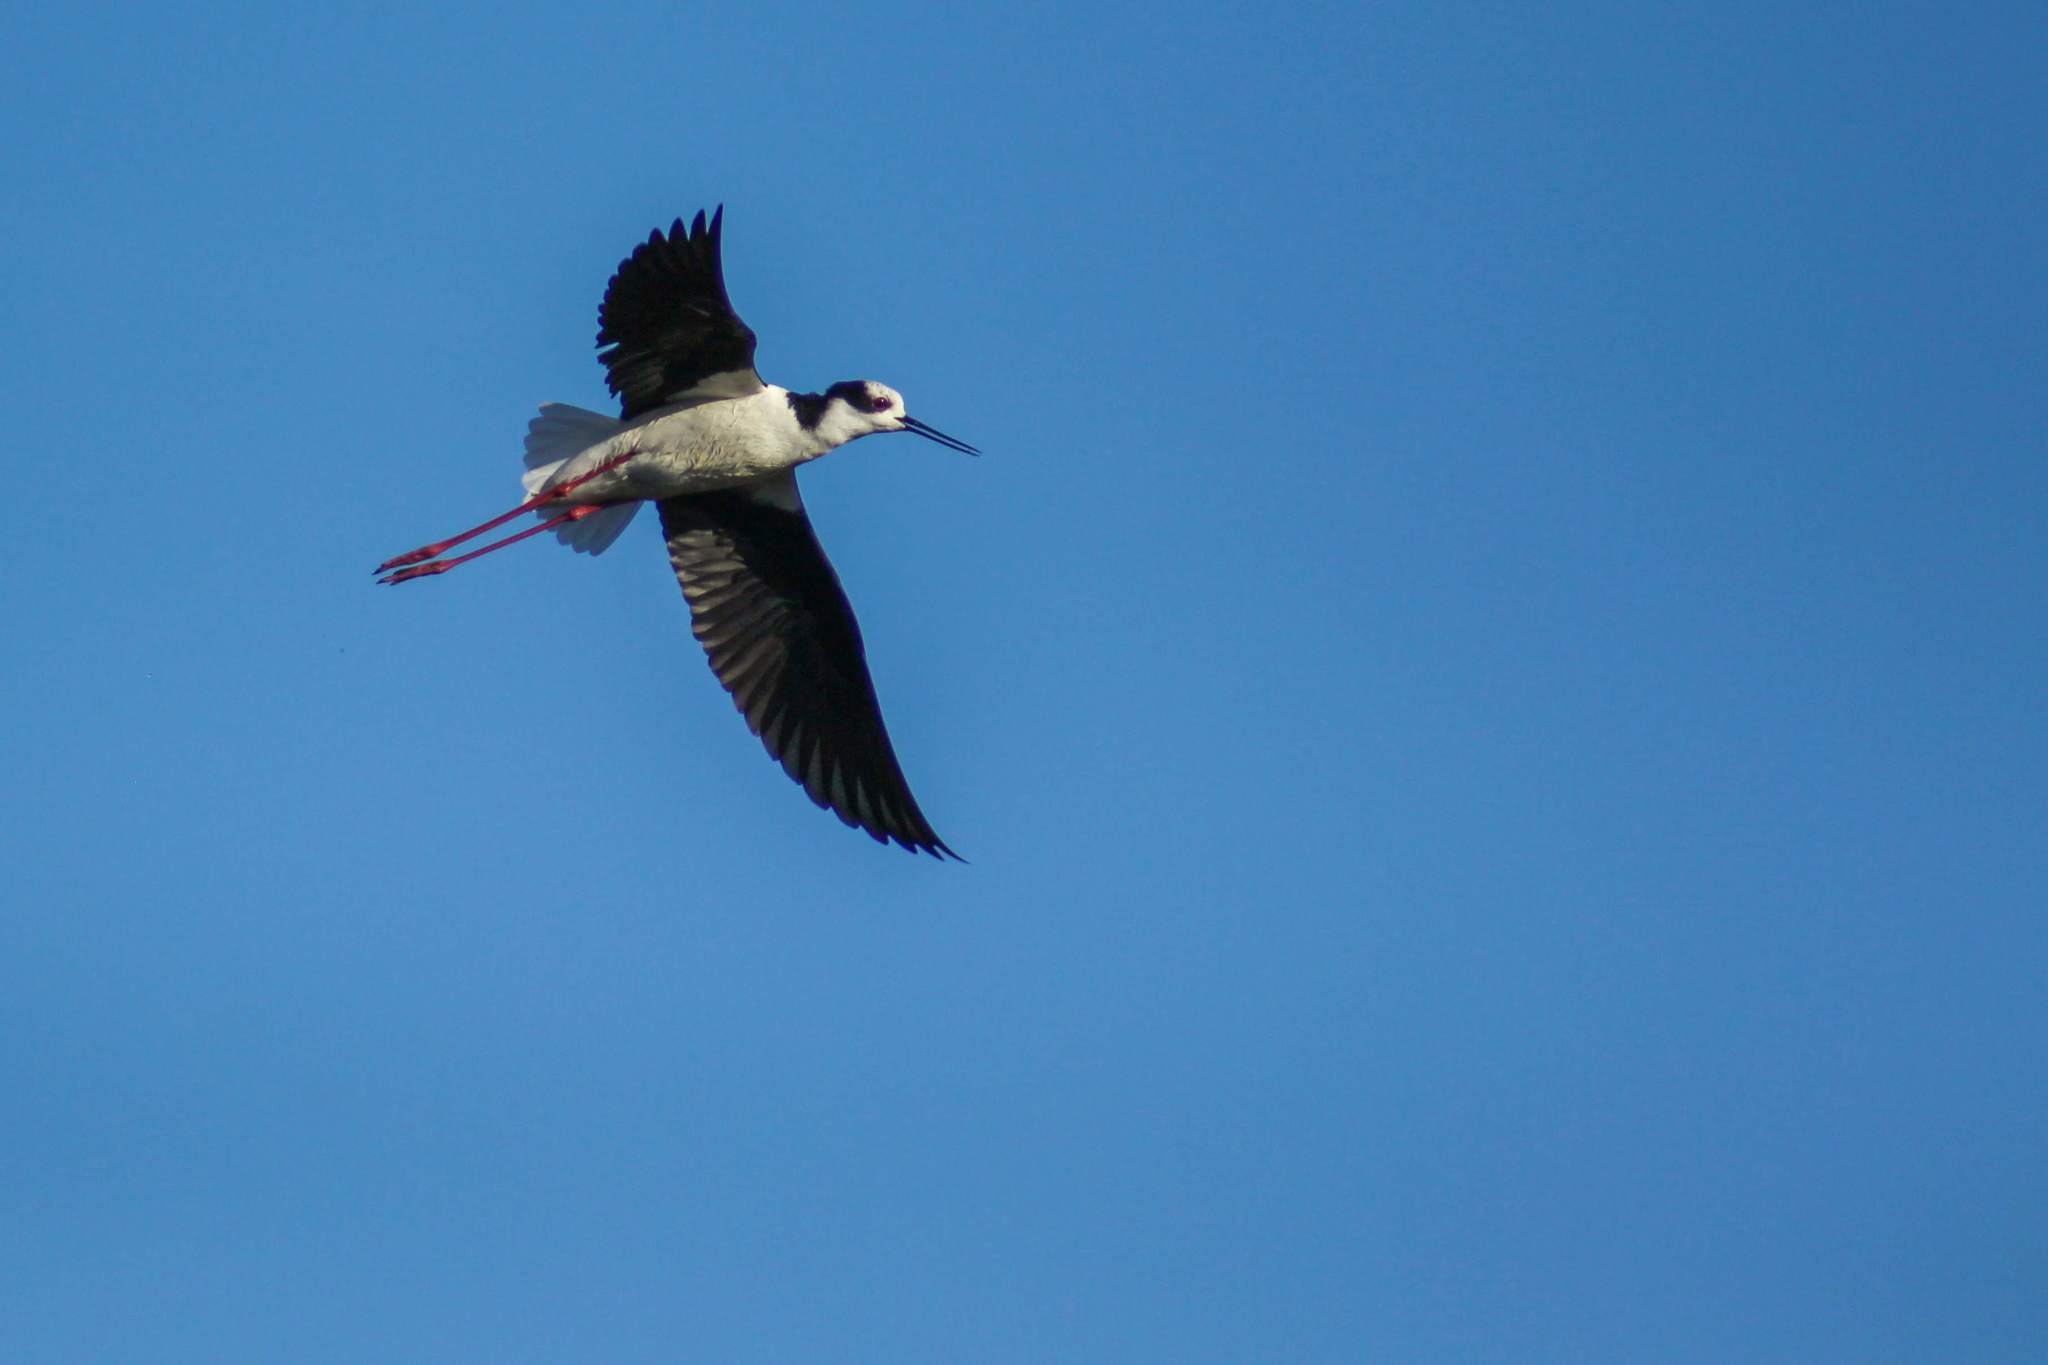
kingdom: Animalia
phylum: Chordata
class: Aves
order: Charadriiformes
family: Recurvirostridae
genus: Himantopus
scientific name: Himantopus mexicanus
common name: Black-necked stilt
